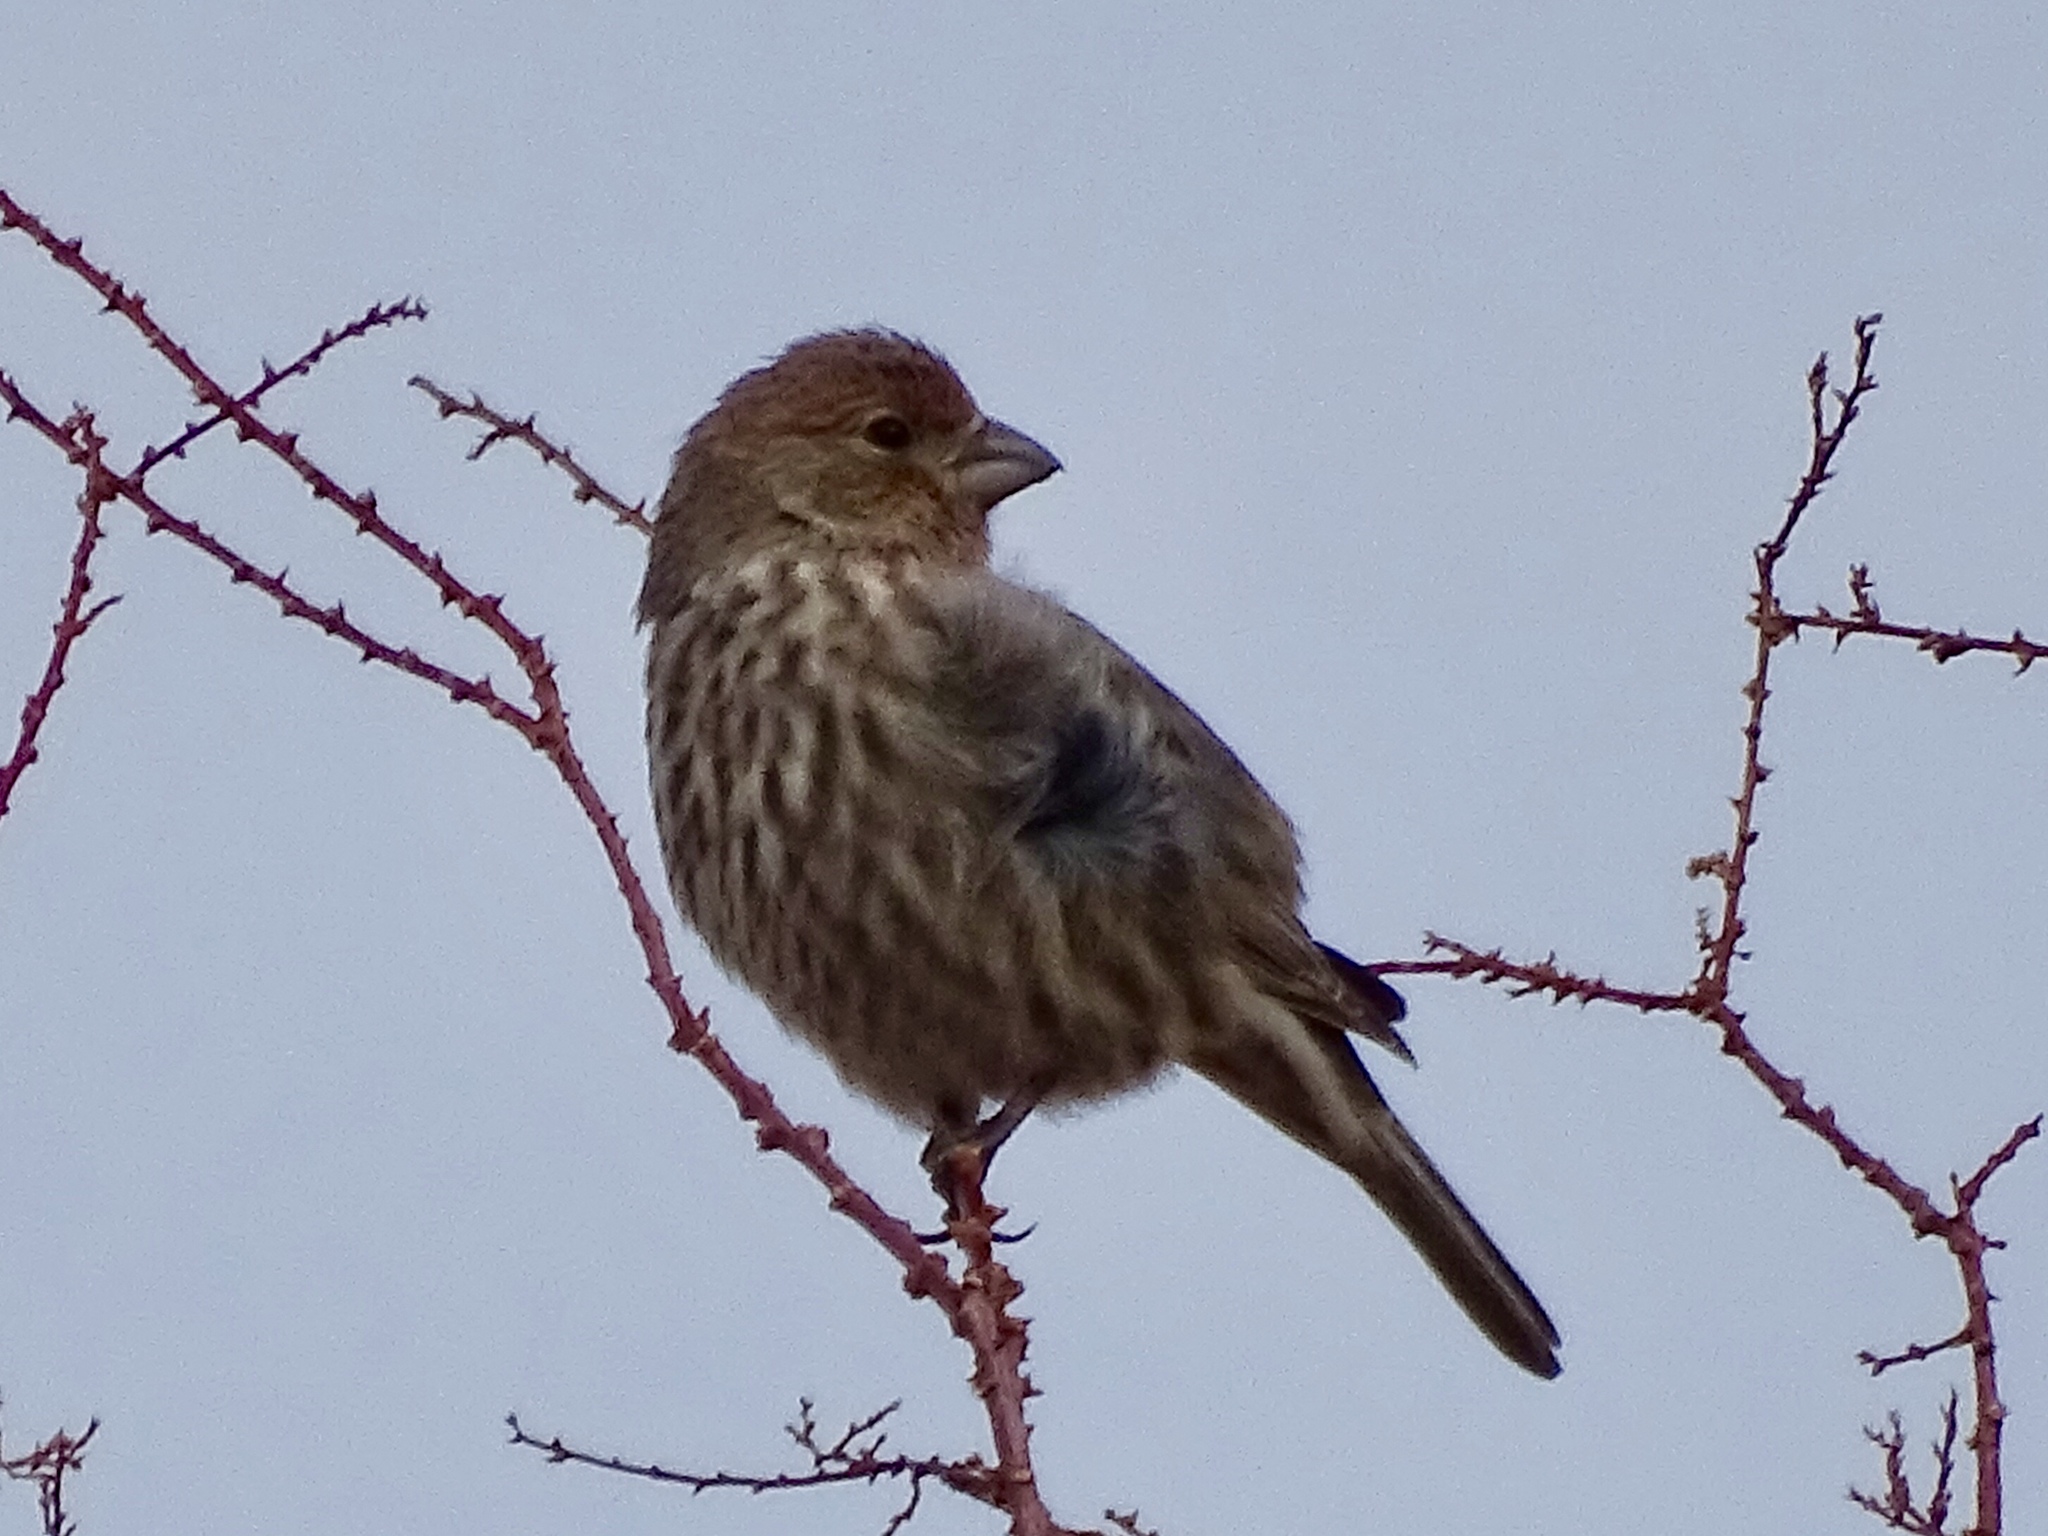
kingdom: Animalia
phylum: Chordata
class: Aves
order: Passeriformes
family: Fringillidae
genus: Haemorhous
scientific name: Haemorhous mexicanus
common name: House finch
